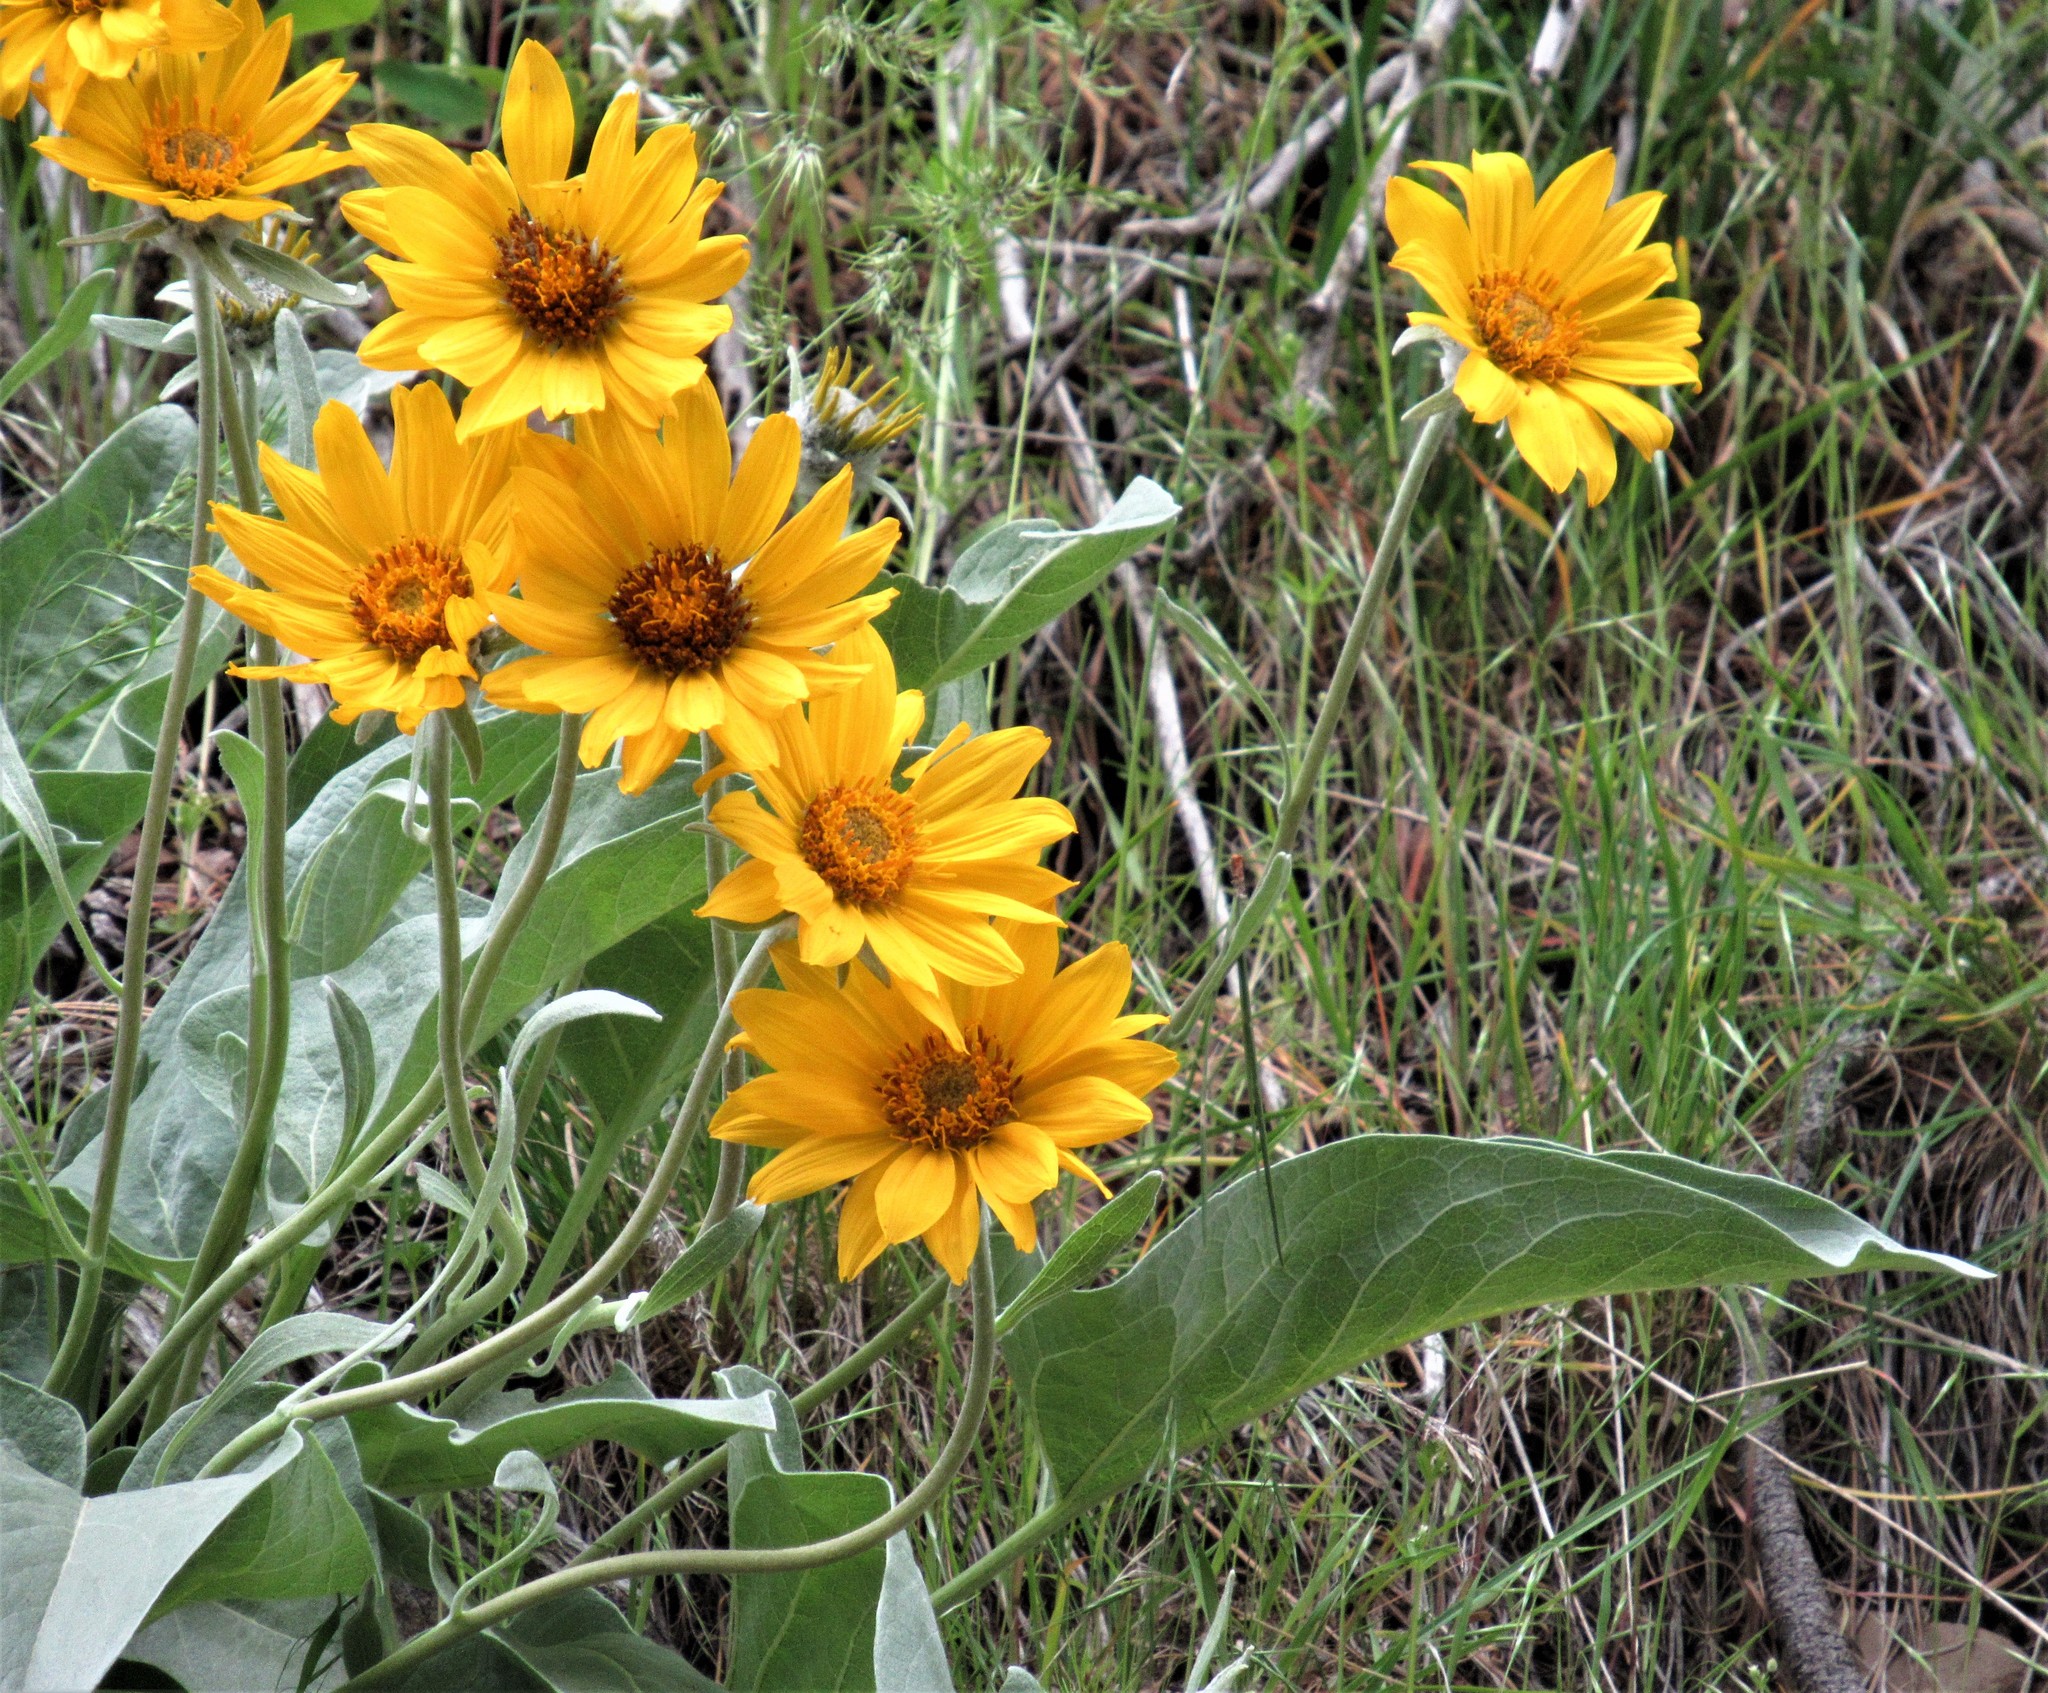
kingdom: Plantae
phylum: Tracheophyta
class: Magnoliopsida
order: Asterales
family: Asteraceae
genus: Wyethia
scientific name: Wyethia sagittata
